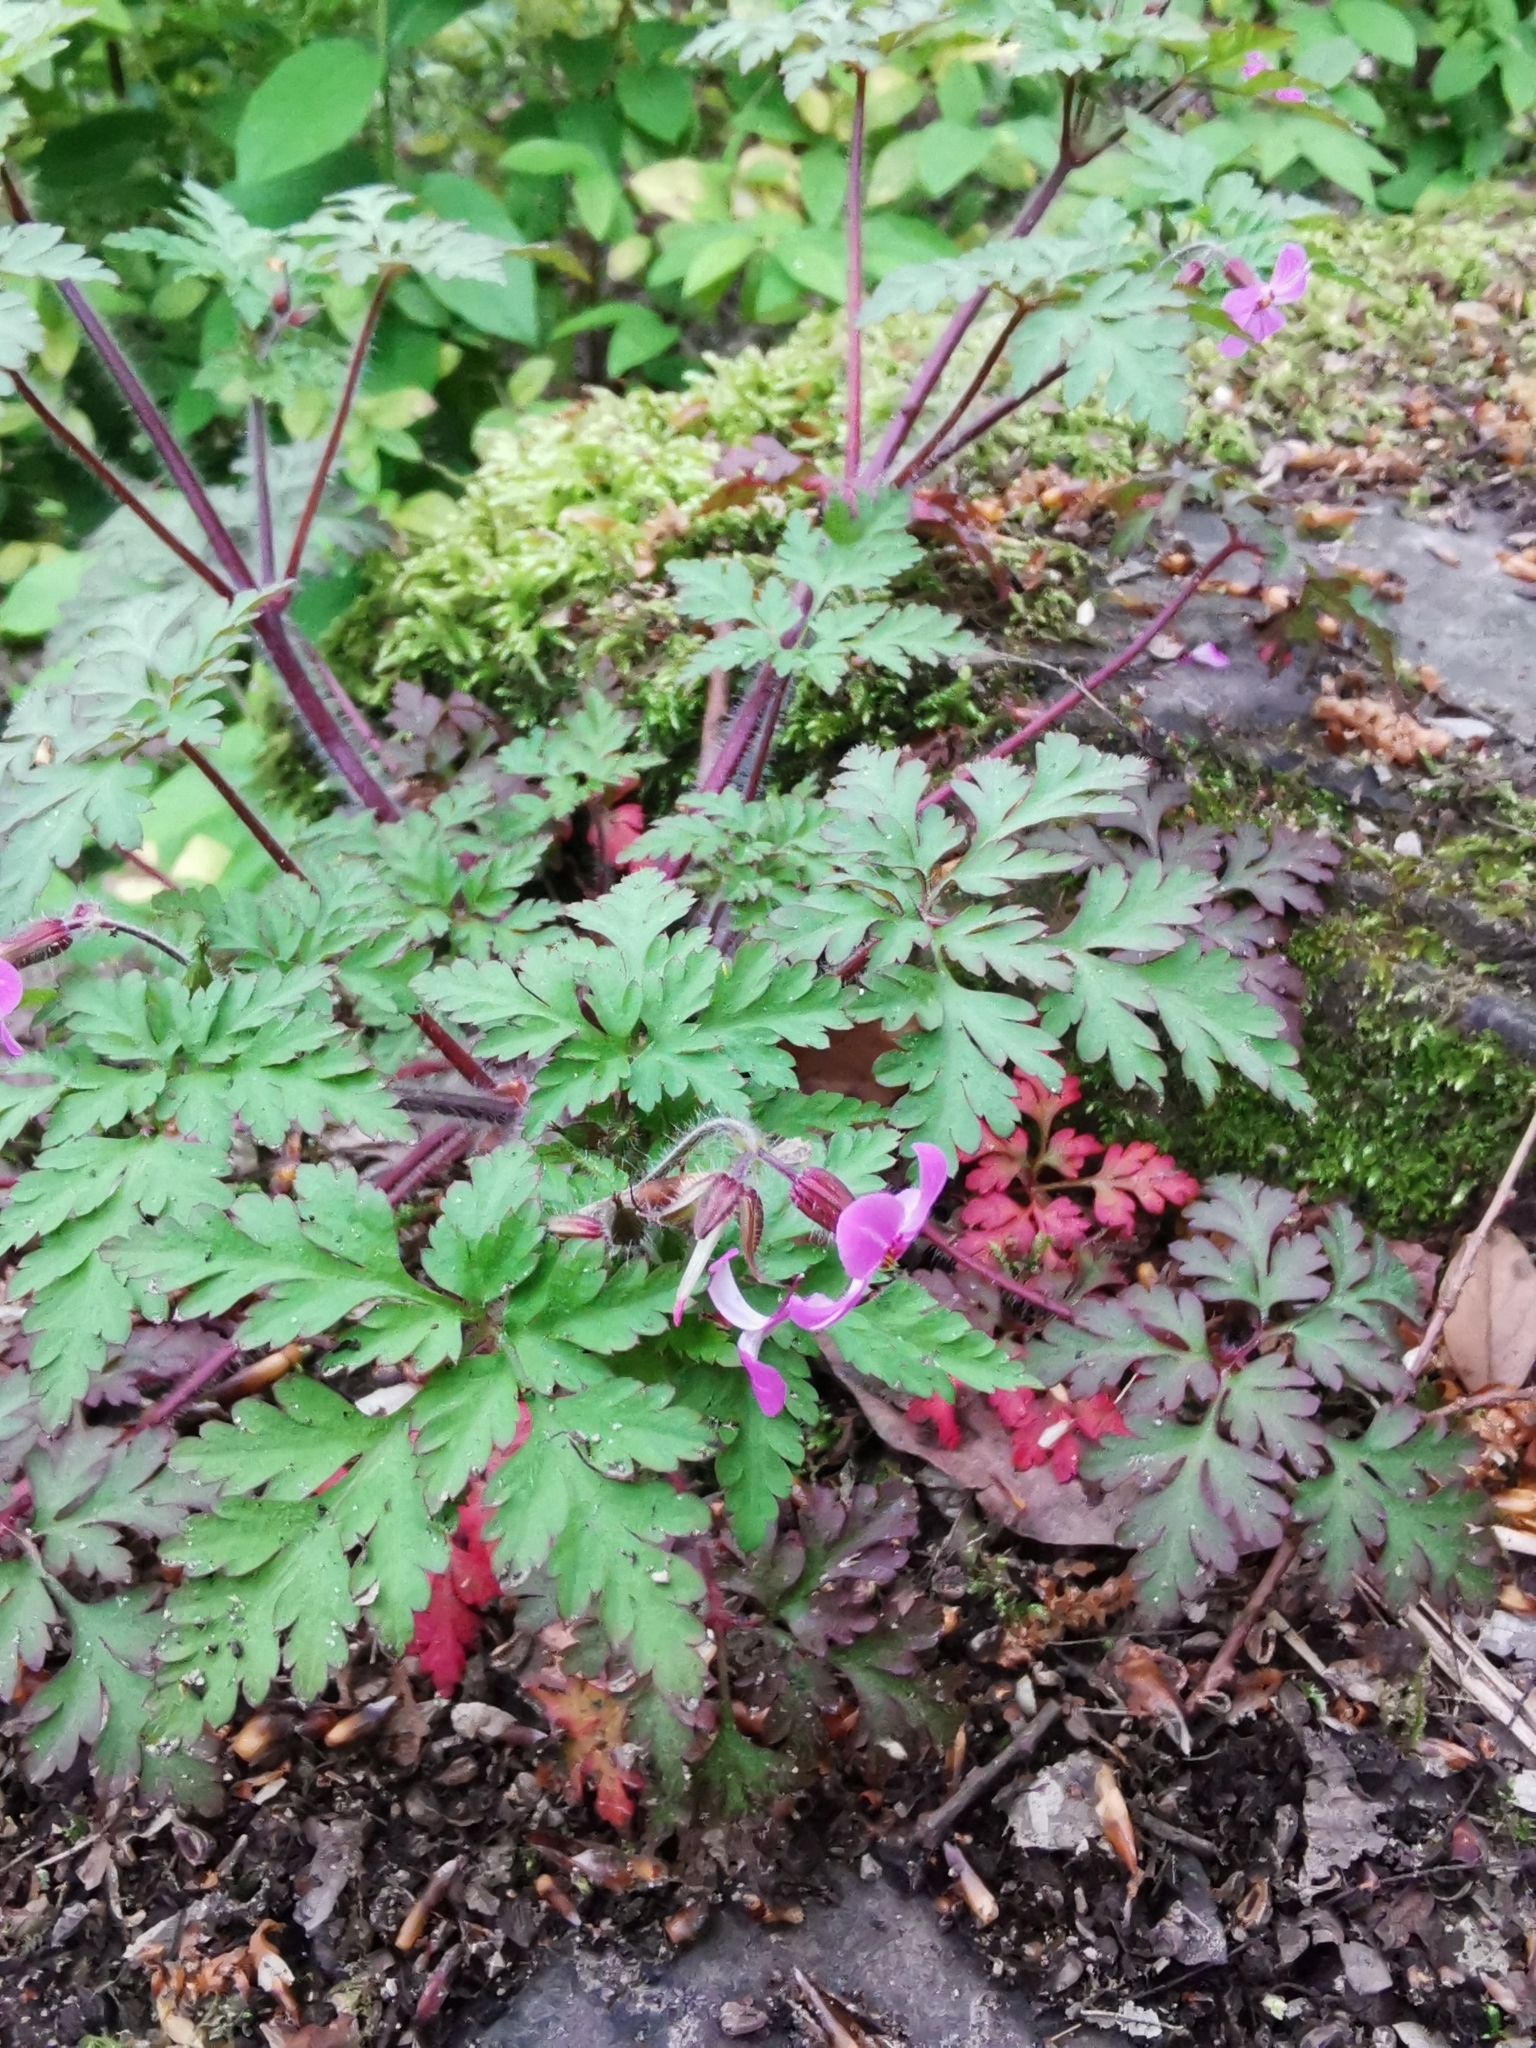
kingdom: Plantae
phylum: Tracheophyta
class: Magnoliopsida
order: Geraniales
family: Geraniaceae
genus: Geranium
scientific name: Geranium robertianum
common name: Herb-robert
